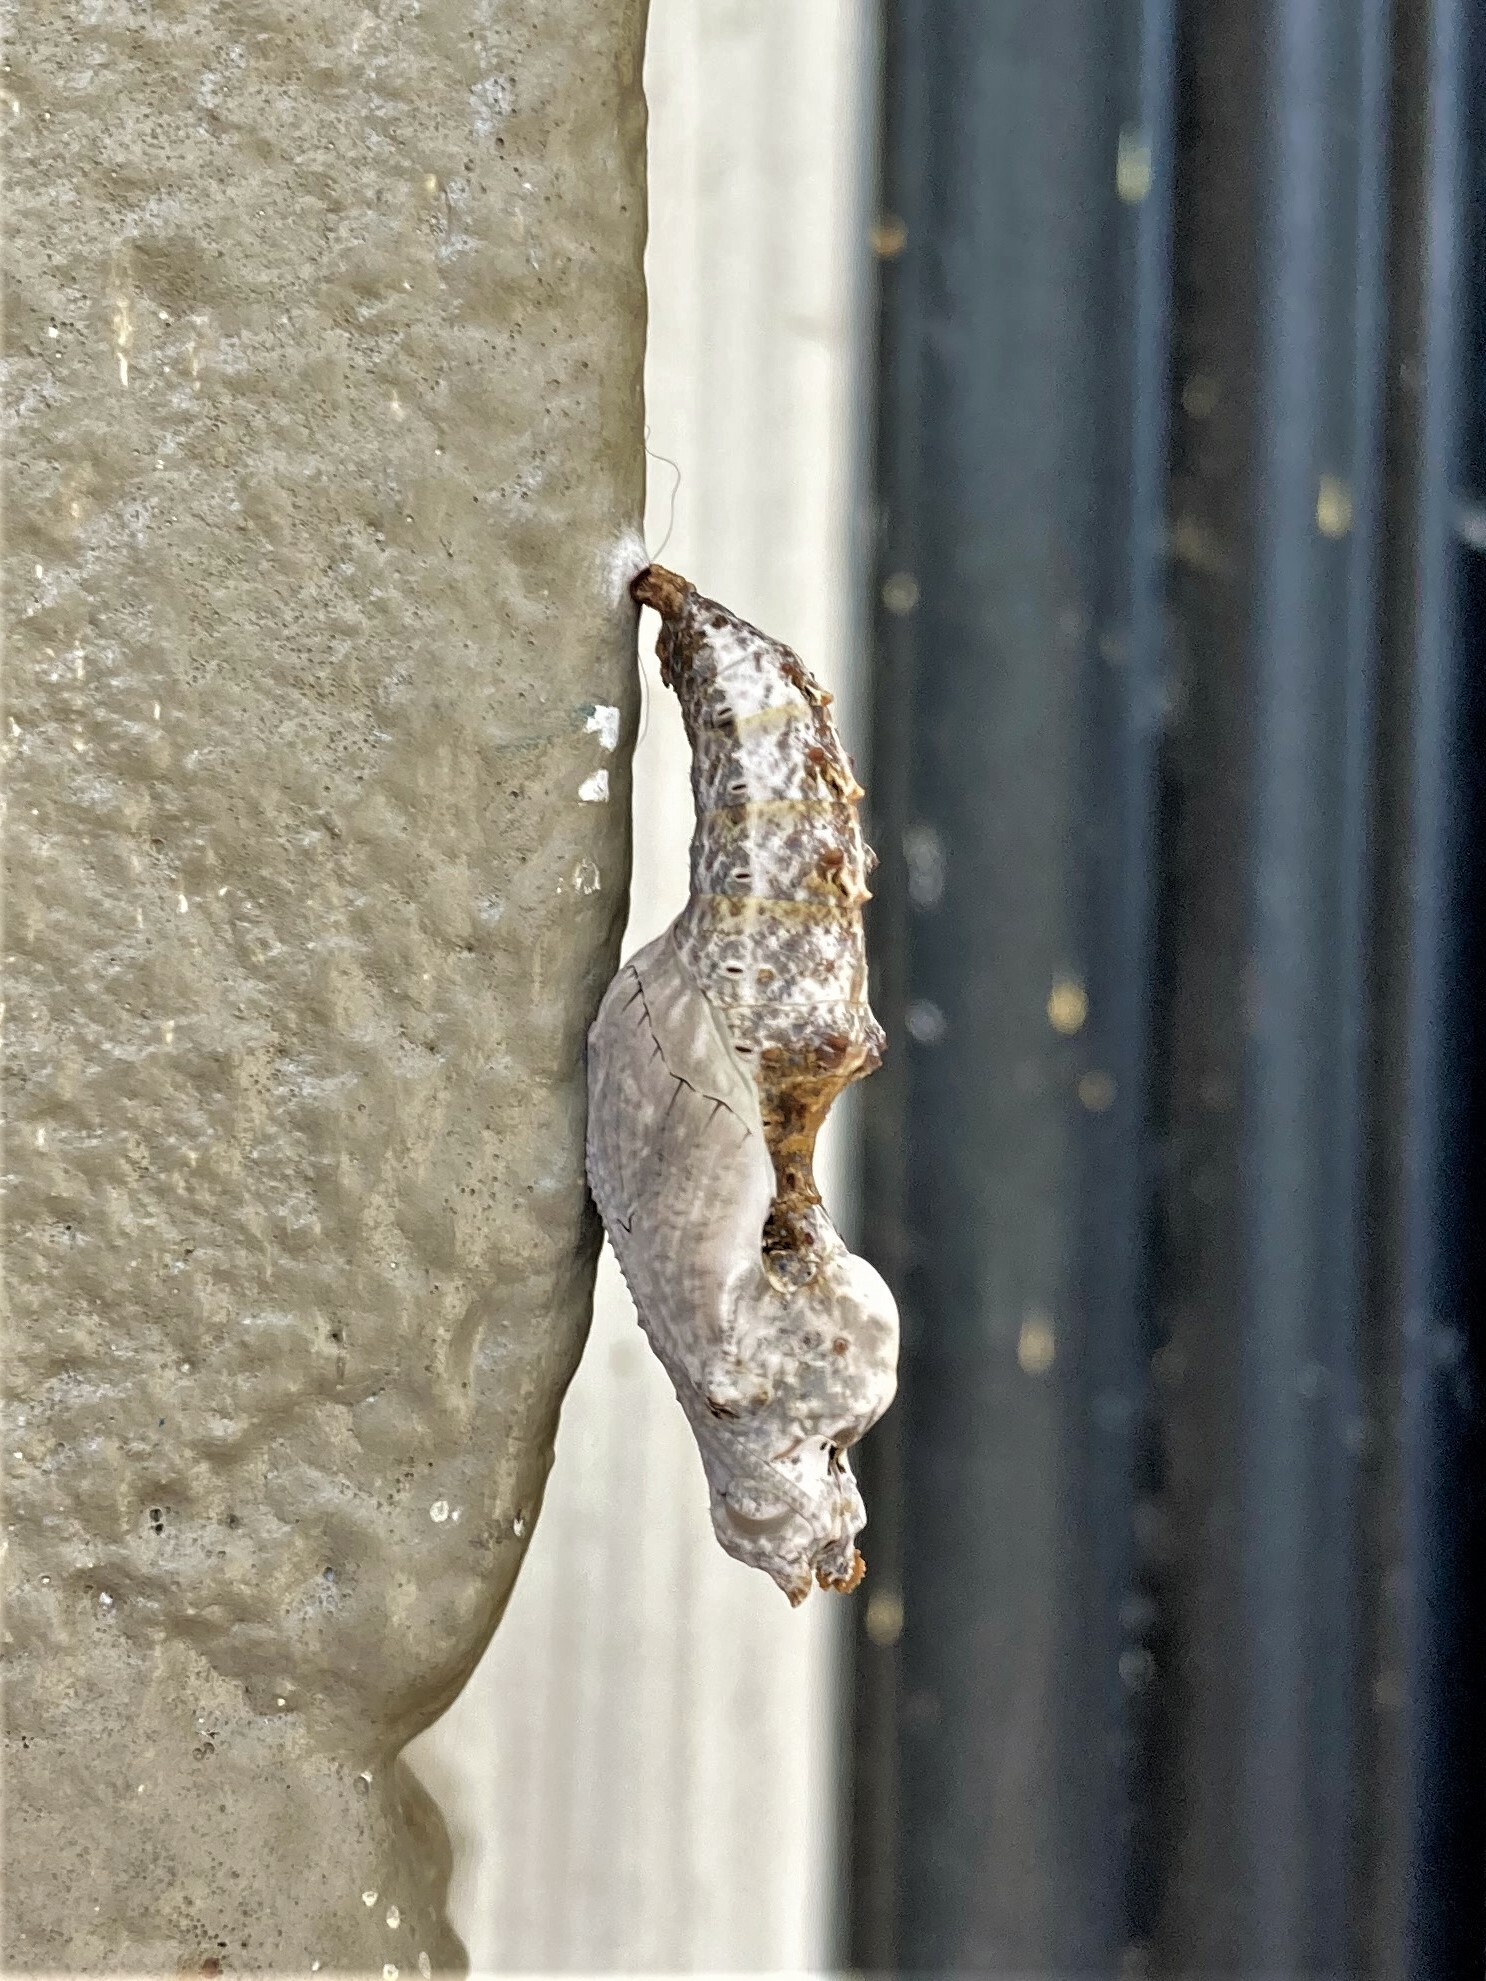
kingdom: Animalia
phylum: Arthropoda
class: Insecta
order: Lepidoptera
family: Nymphalidae
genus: Dione
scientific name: Dione vanillae
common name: Gulf fritillary
